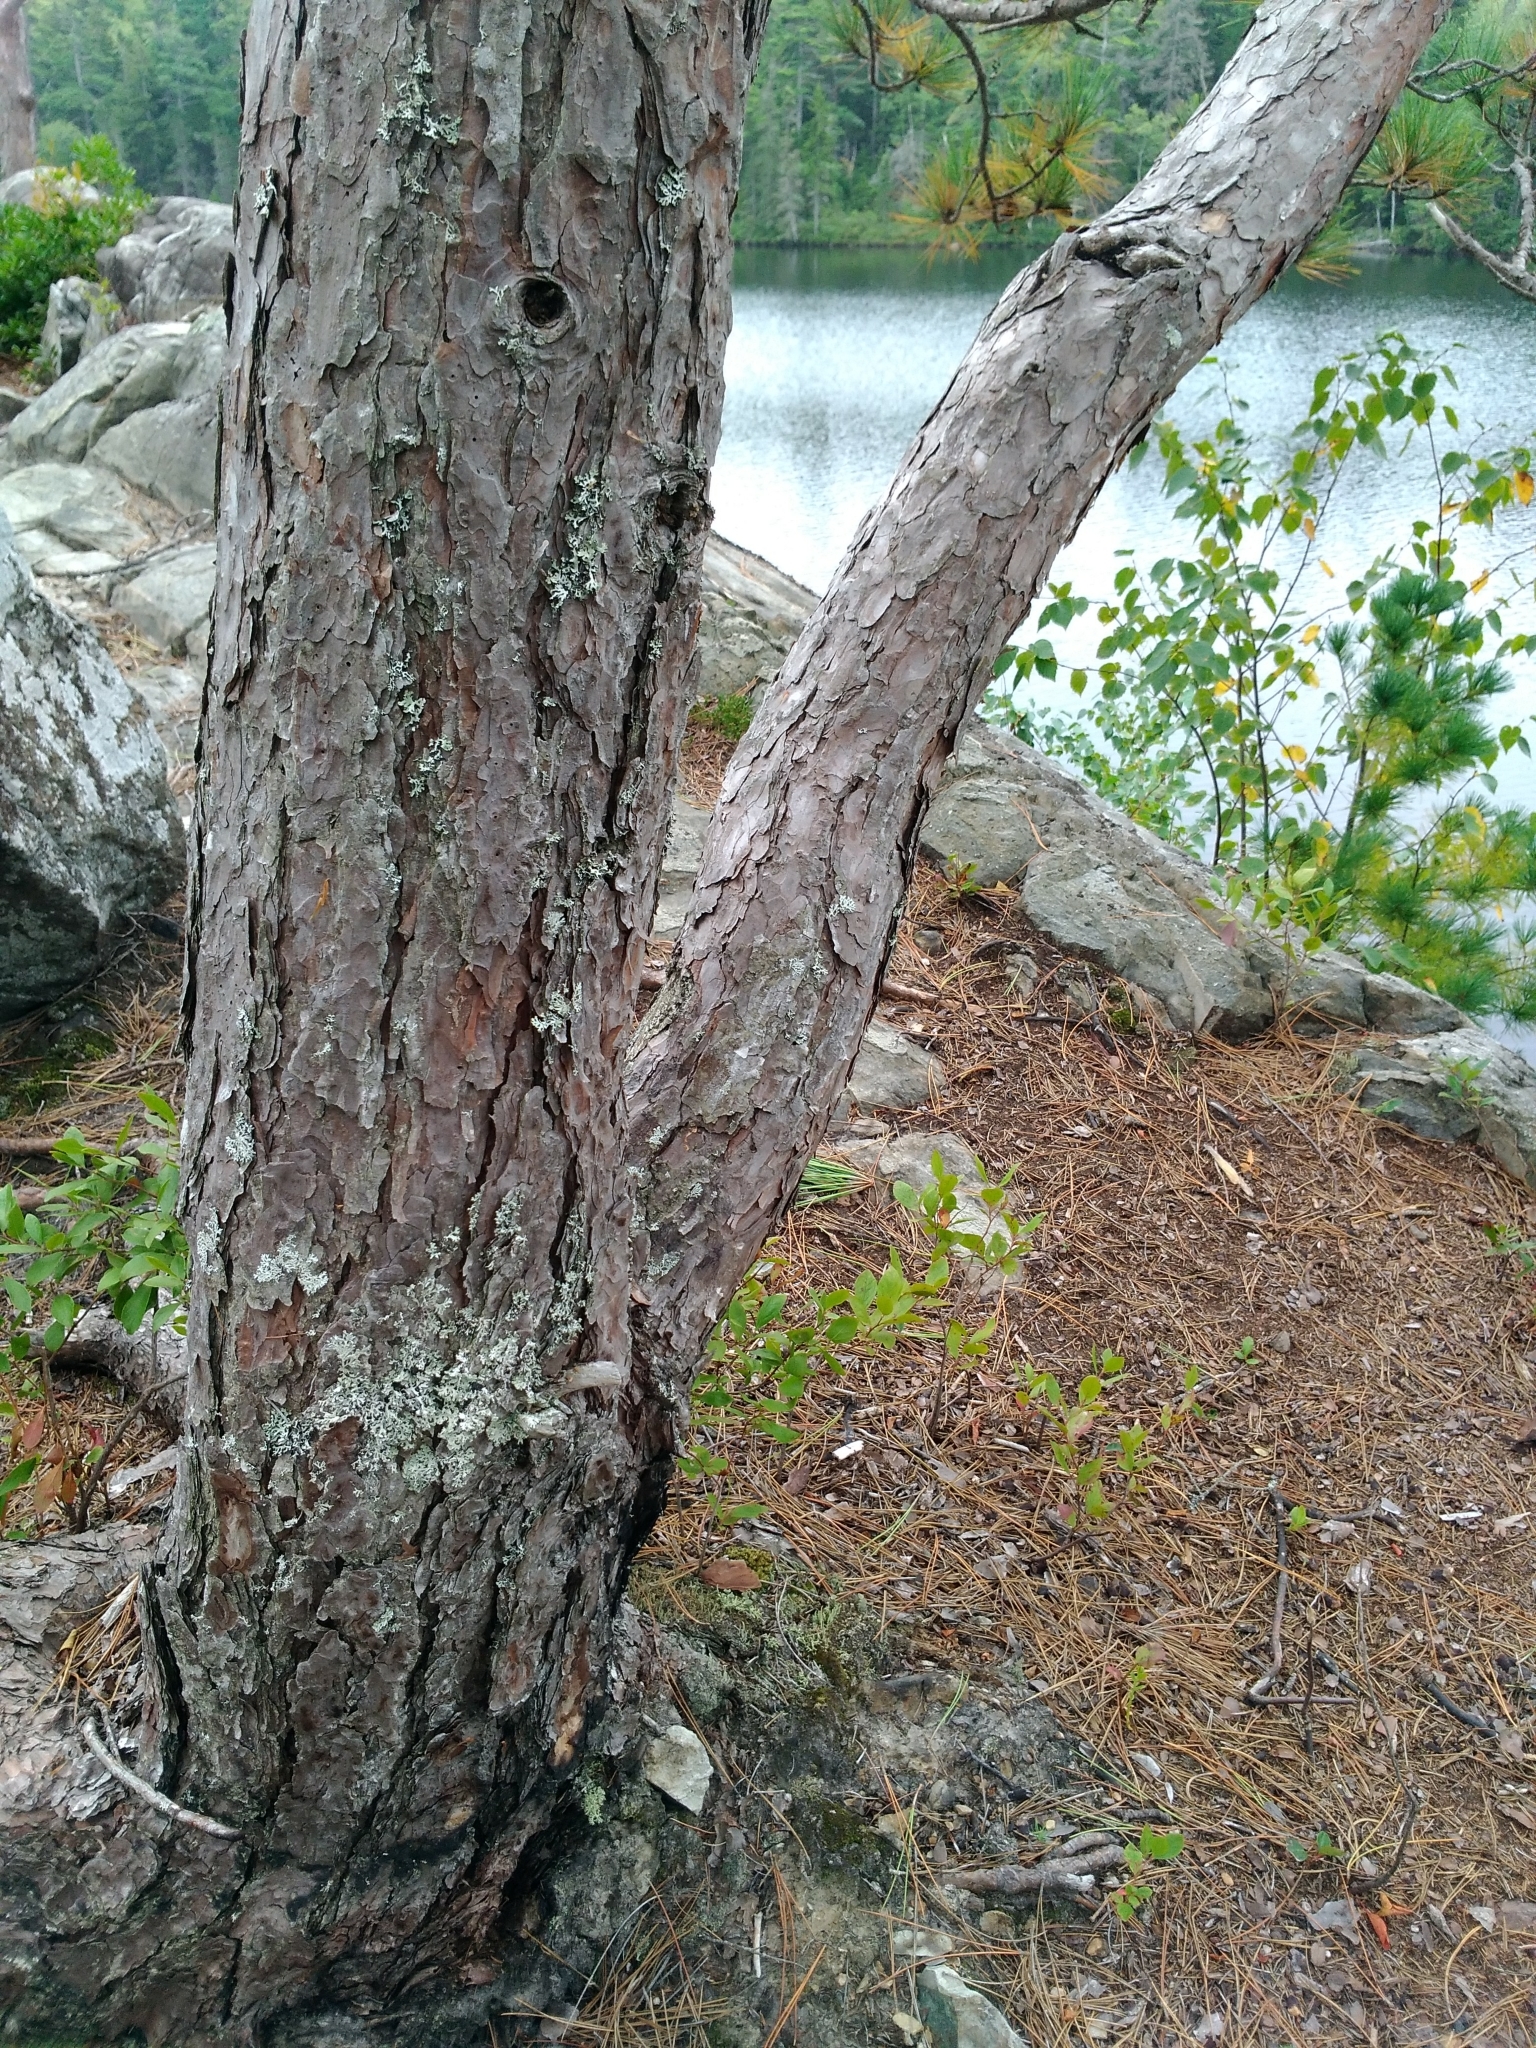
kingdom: Plantae
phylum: Tracheophyta
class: Pinopsida
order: Pinales
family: Pinaceae
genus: Pinus
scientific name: Pinus resinosa
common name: Norway pine
